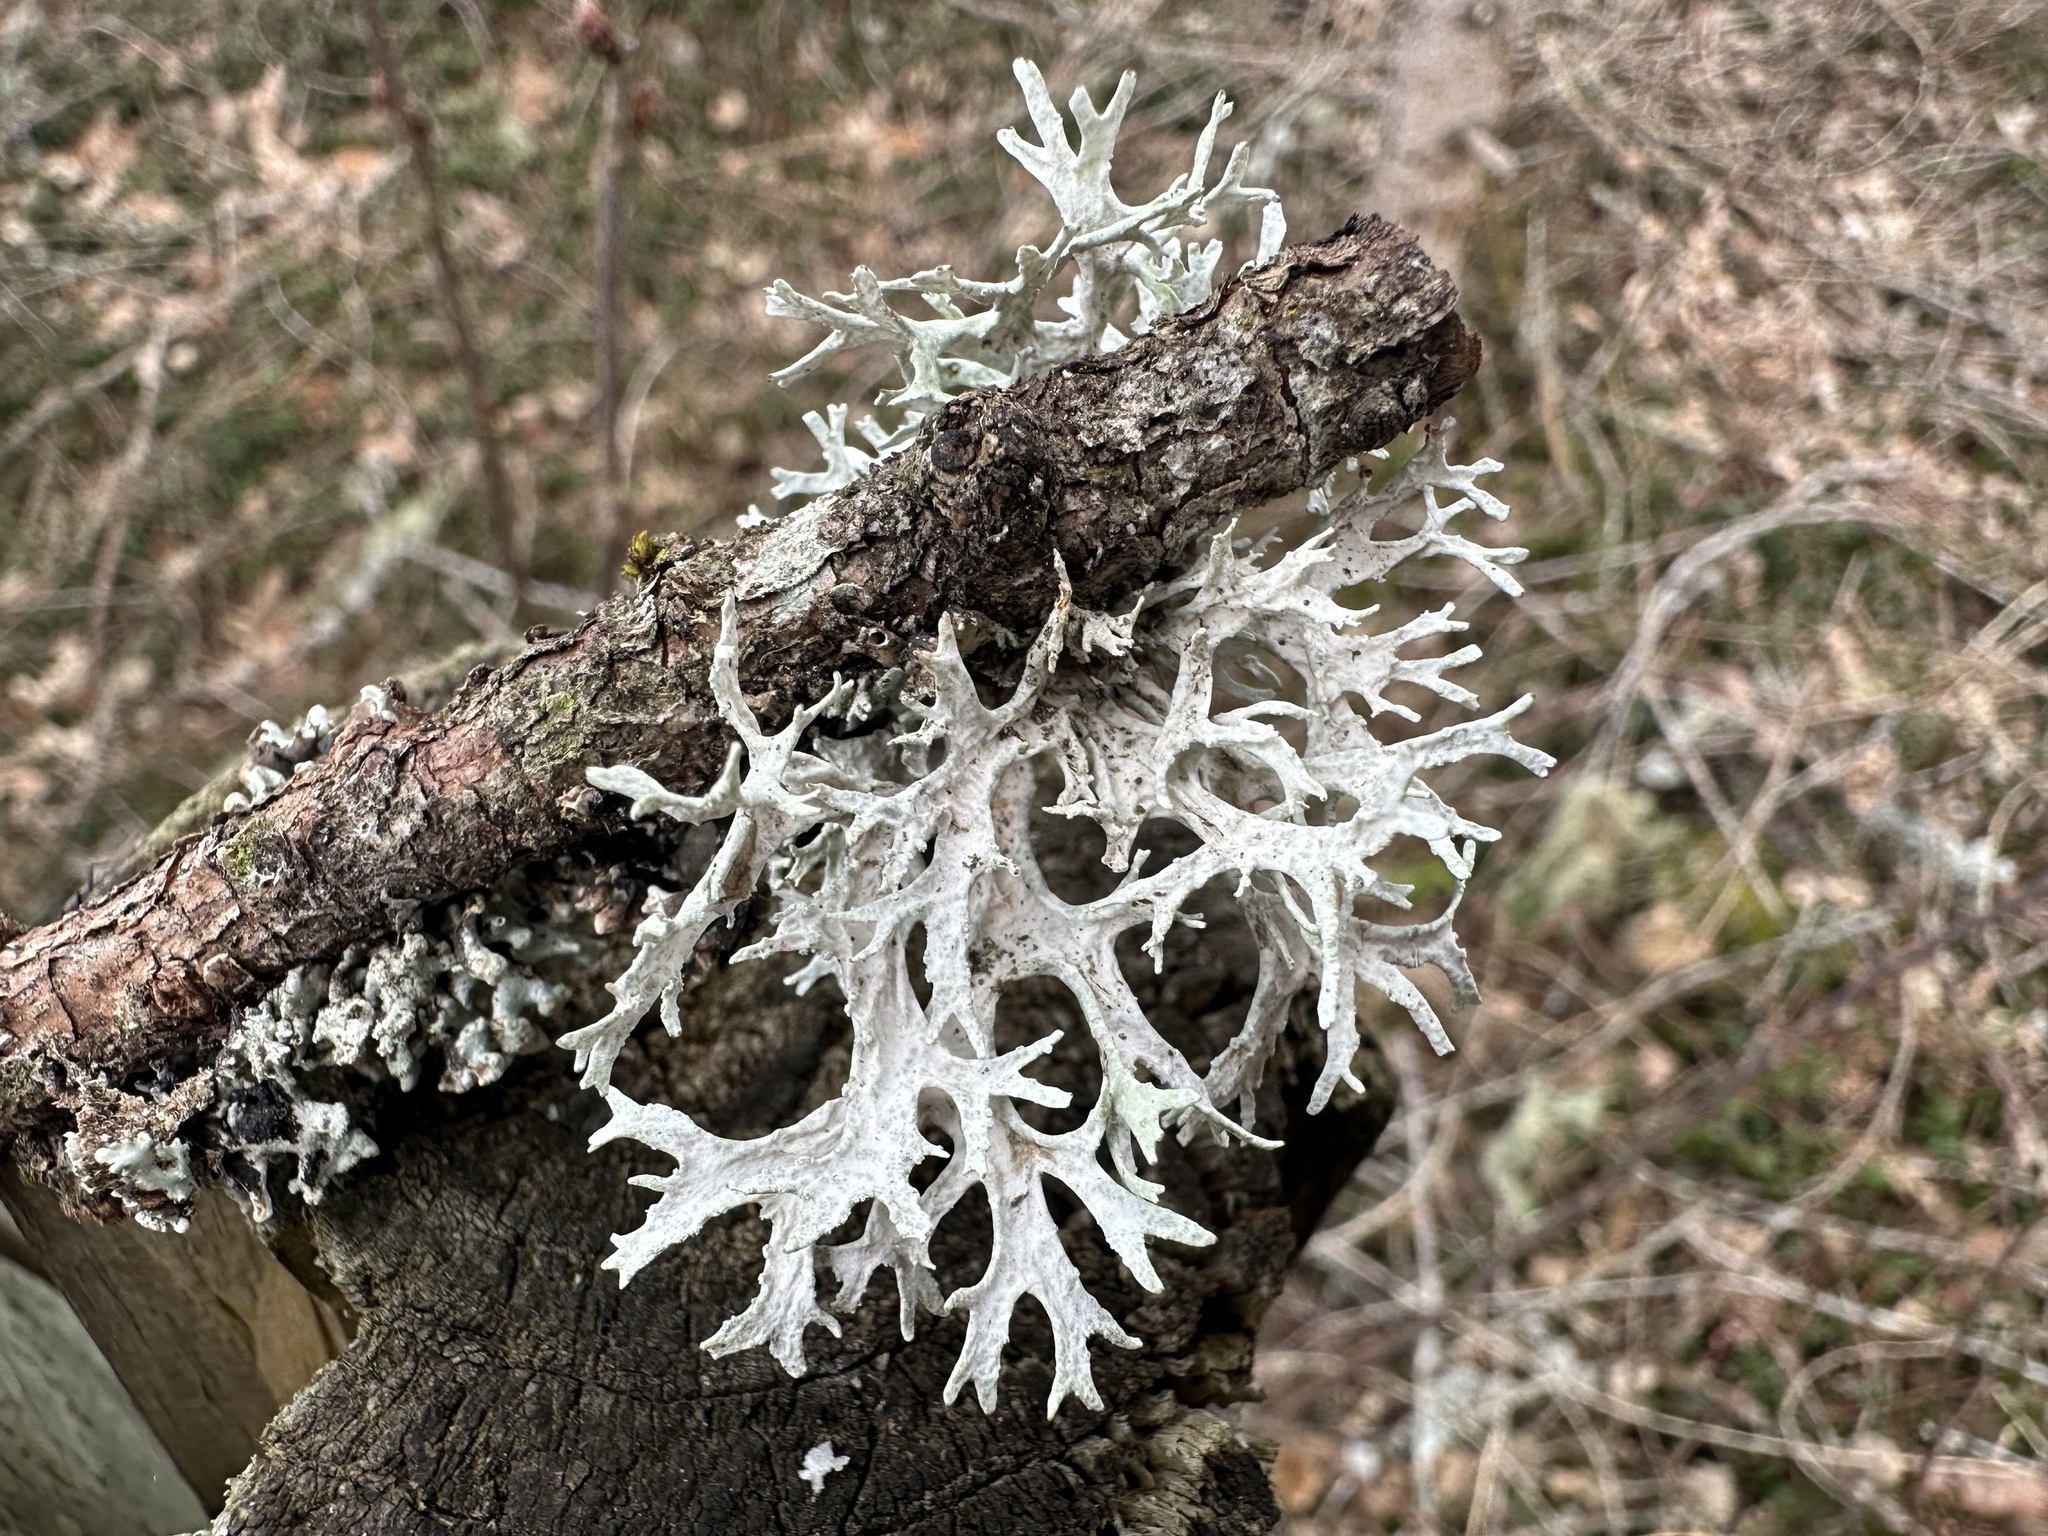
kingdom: Fungi
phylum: Ascomycota
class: Lecanoromycetes
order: Lecanorales
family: Parmeliaceae
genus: Evernia
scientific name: Evernia prunastri
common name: Oak moss
